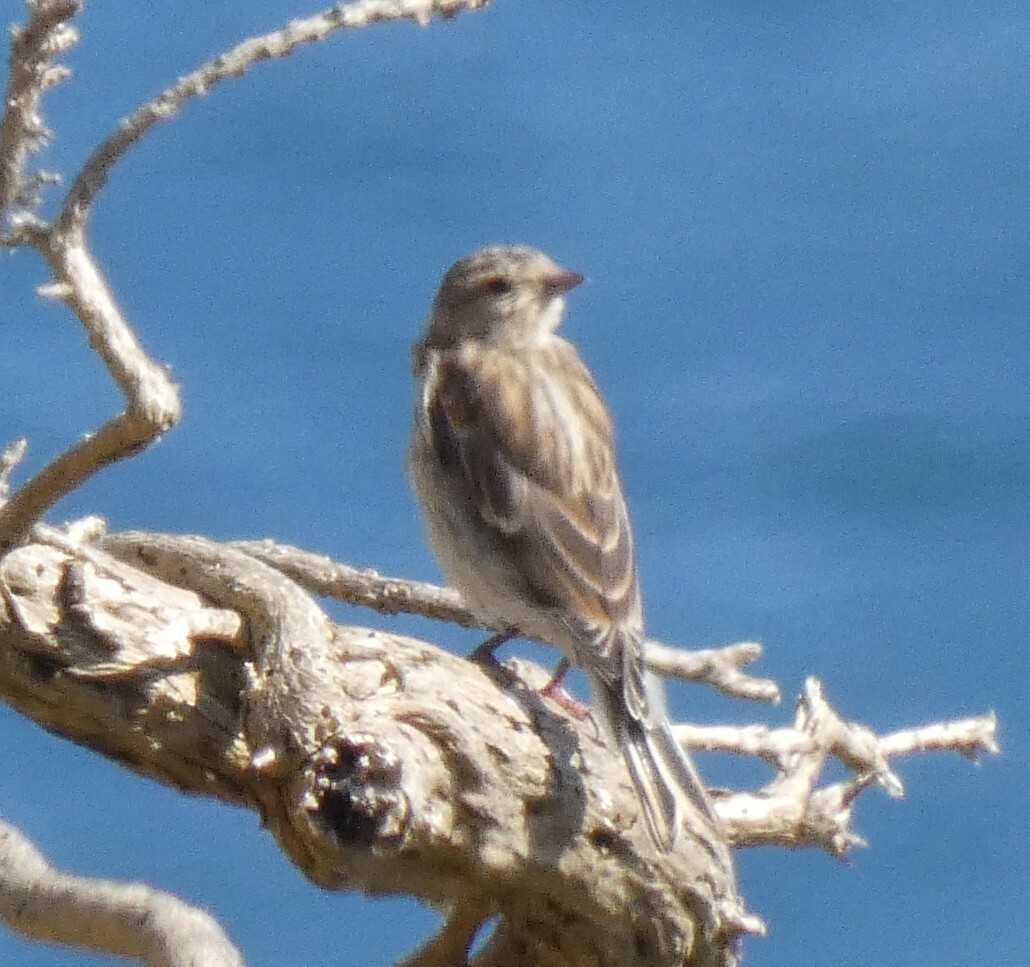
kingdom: Animalia
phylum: Chordata
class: Aves
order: Passeriformes
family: Fringillidae
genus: Linaria
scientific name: Linaria cannabina
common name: Common linnet
